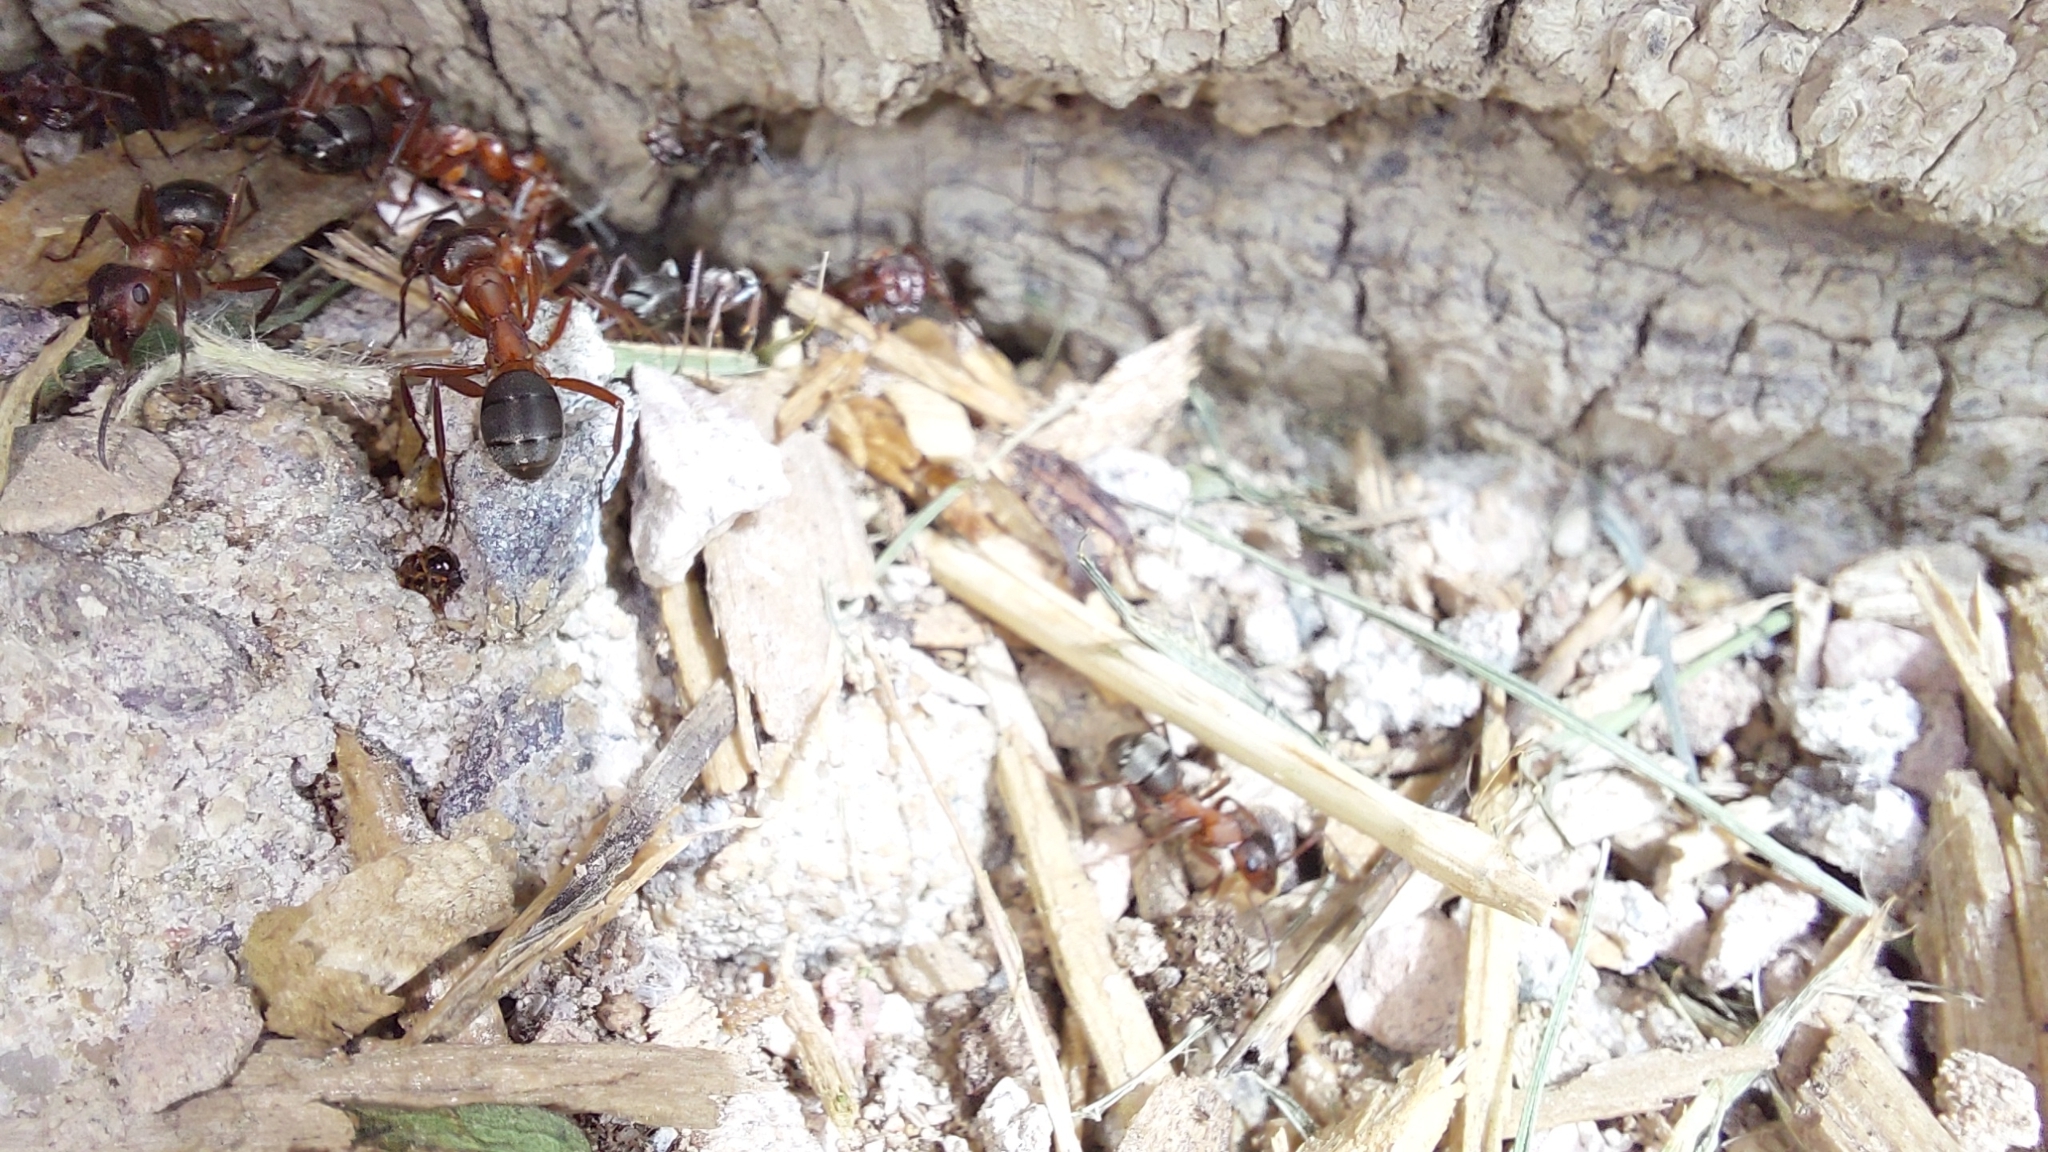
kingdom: Animalia
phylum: Arthropoda
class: Insecta
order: Hymenoptera
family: Formicidae
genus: Formica
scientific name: Formica sanguinea
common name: Blood-red ant
